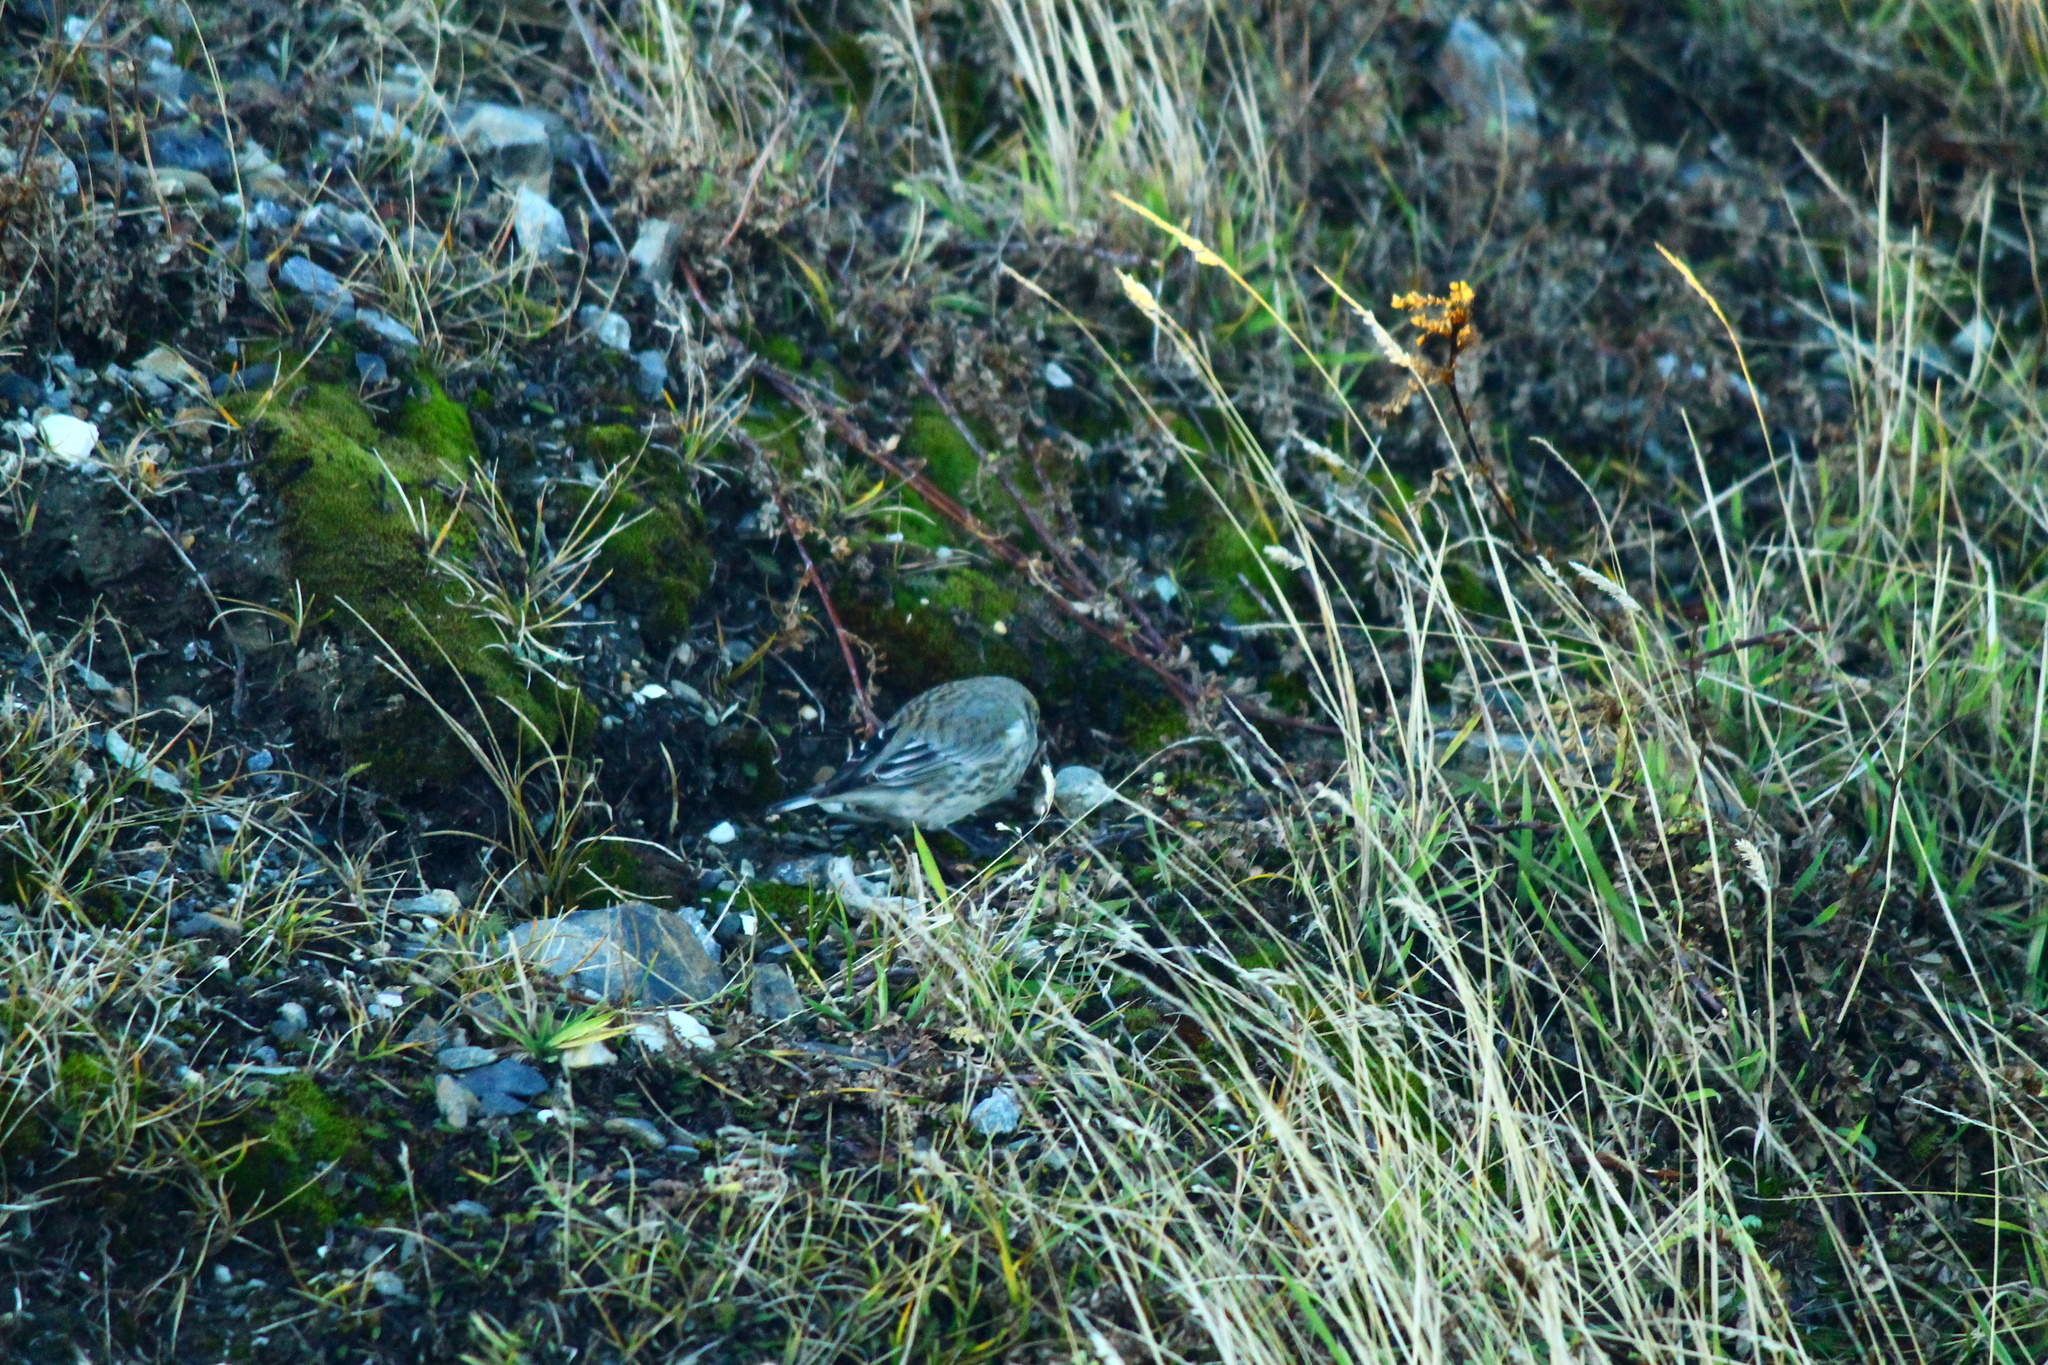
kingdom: Animalia
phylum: Chordata
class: Aves
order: Passeriformes
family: Thraupidae
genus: Melanodera
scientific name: Melanodera xanthogramma
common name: Yellow-bridled finch
